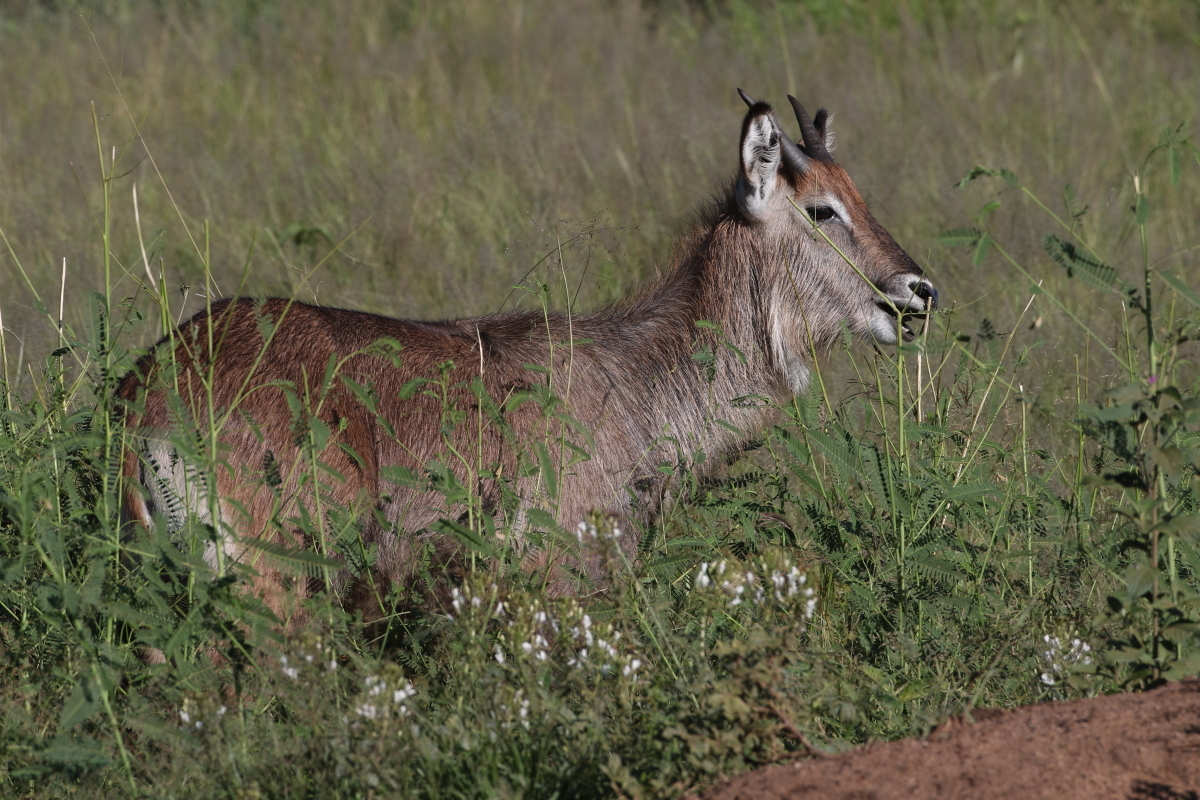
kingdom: Animalia
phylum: Chordata
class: Mammalia
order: Artiodactyla
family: Bovidae
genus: Kobus
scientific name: Kobus ellipsiprymnus
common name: Waterbuck
